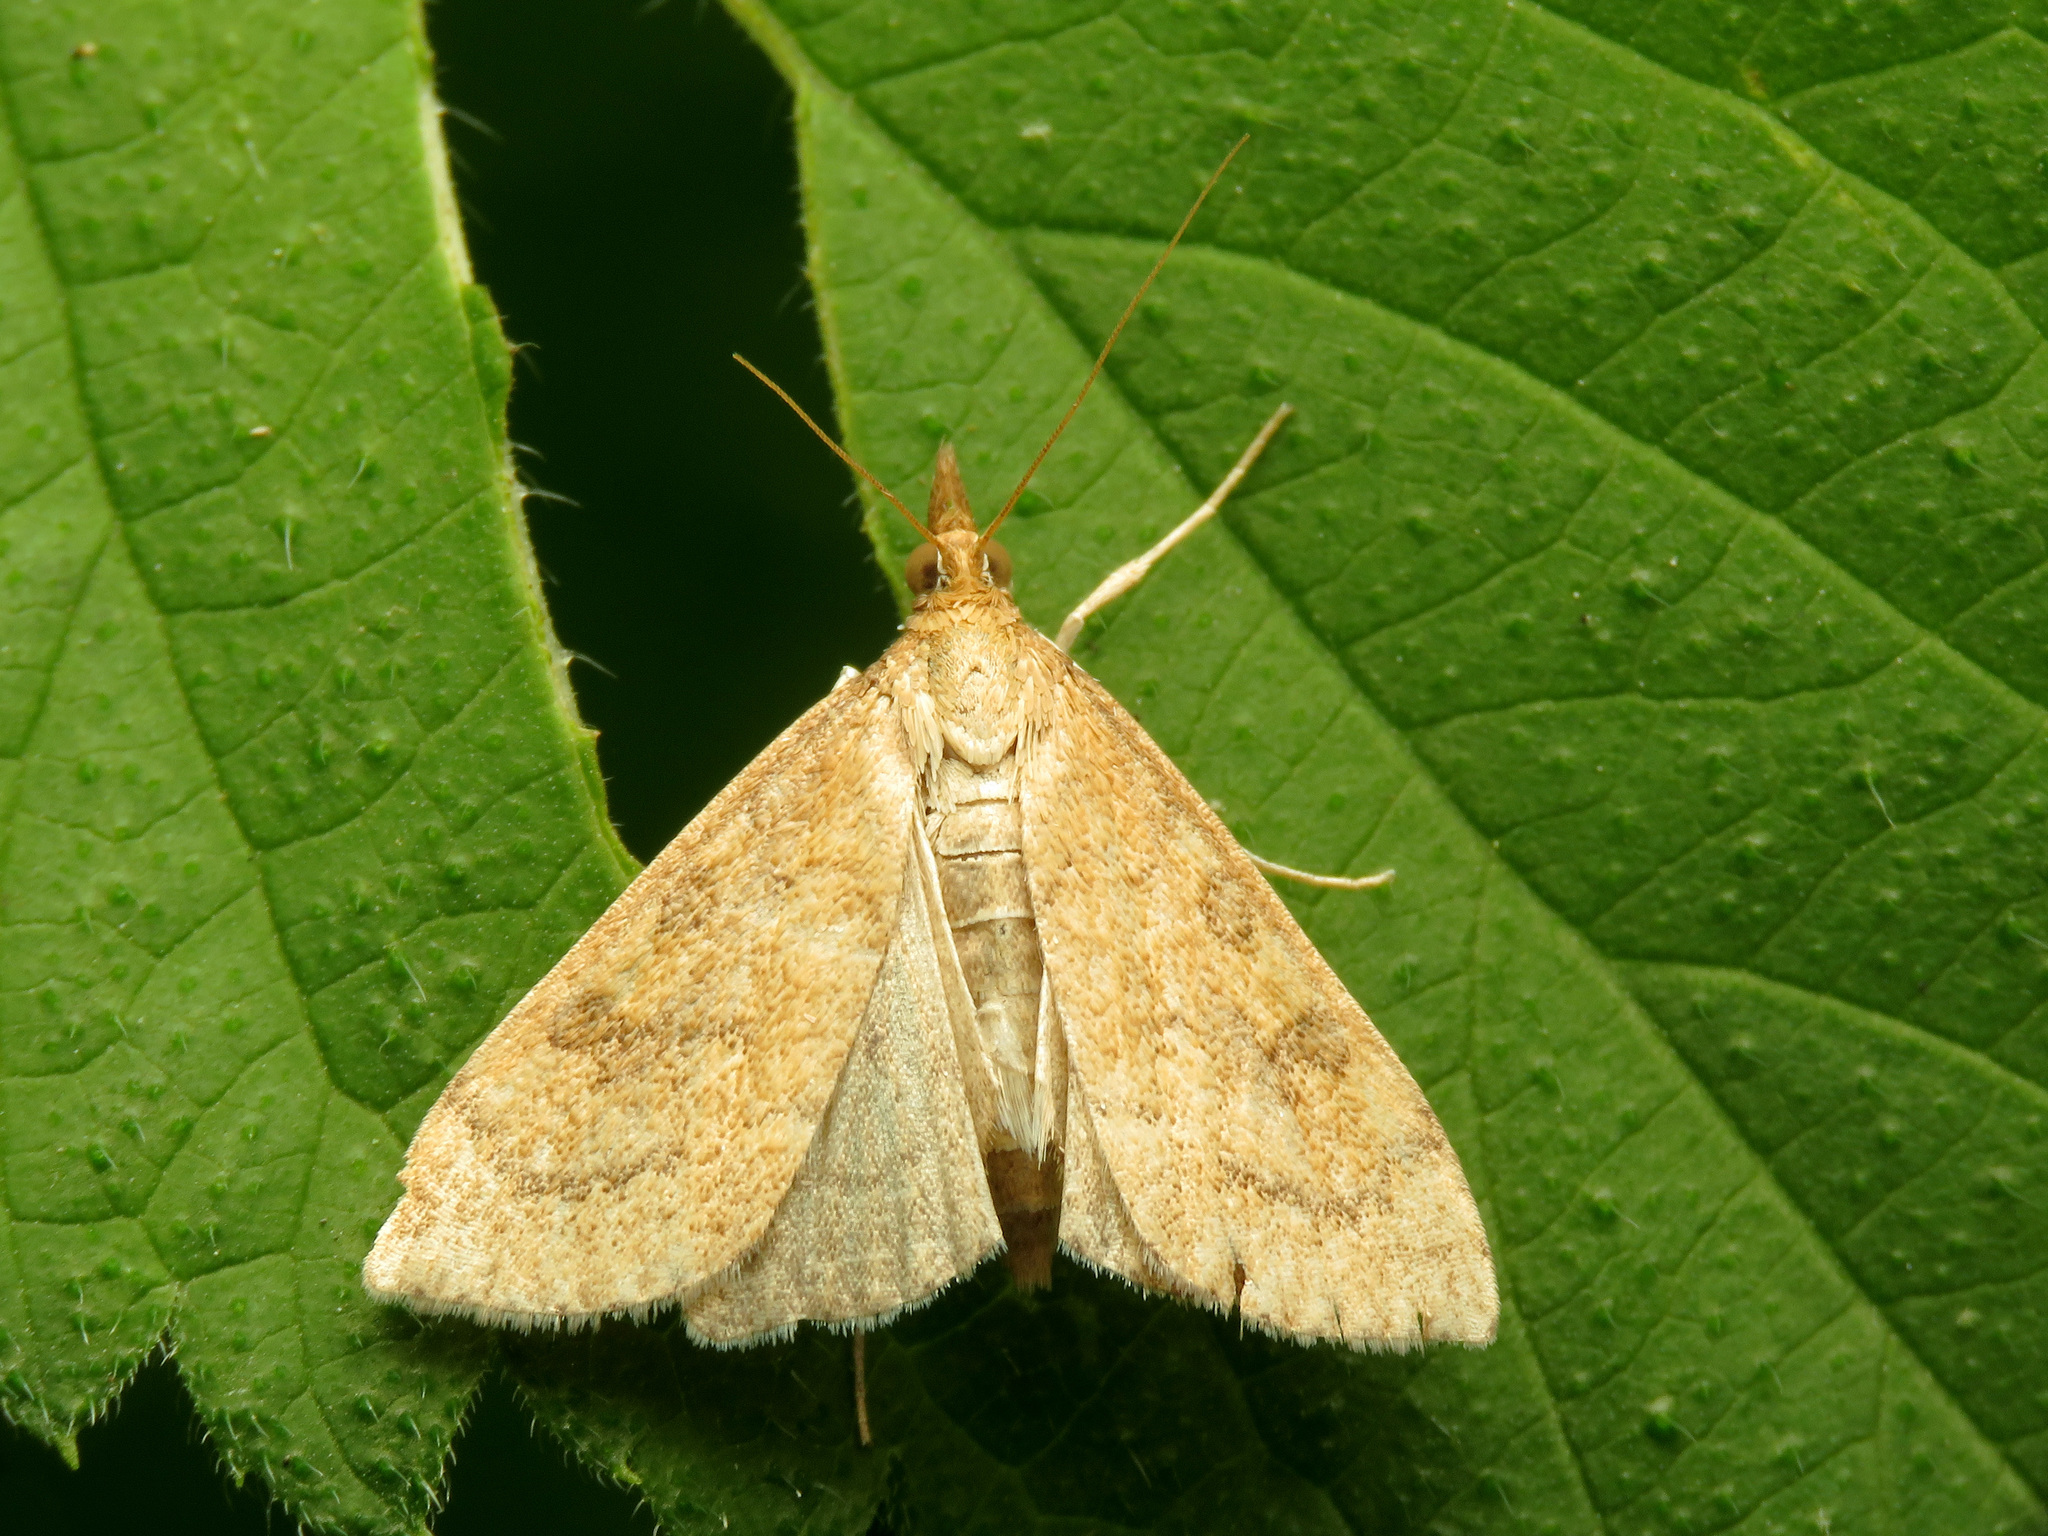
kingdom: Animalia
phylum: Arthropoda
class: Insecta
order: Lepidoptera
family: Crambidae
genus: Udea
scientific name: Udea rubigalis
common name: Celery leaftier moth
